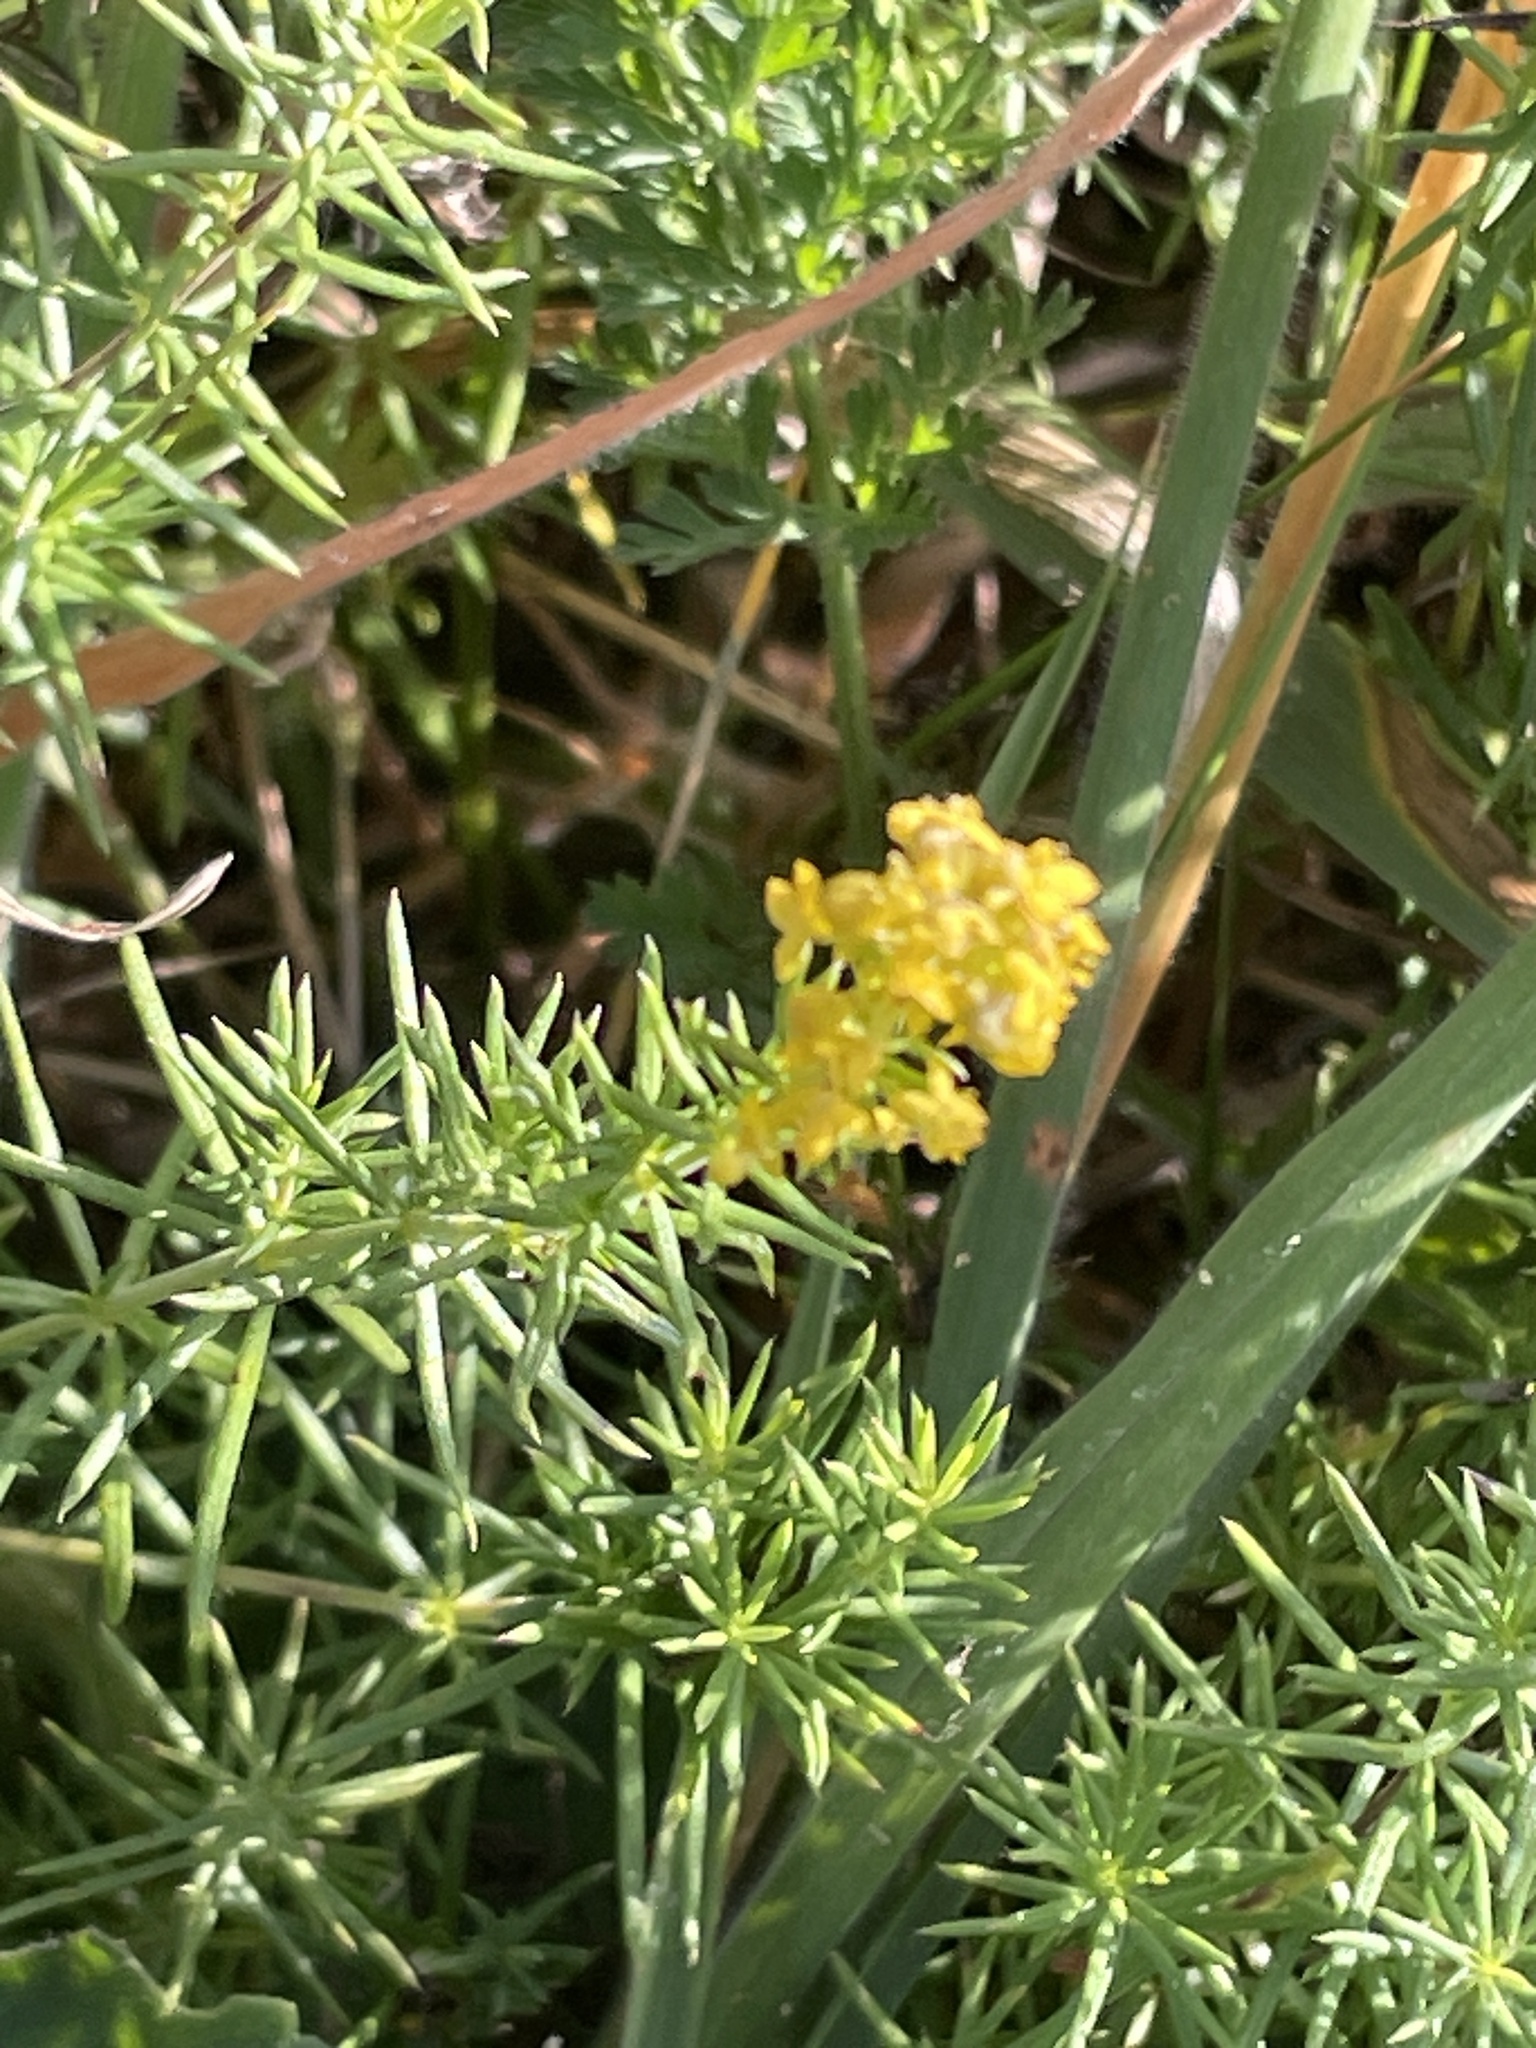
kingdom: Plantae
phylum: Tracheophyta
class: Magnoliopsida
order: Gentianales
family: Rubiaceae
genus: Galium
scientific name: Galium verum
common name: Lady's bedstraw
